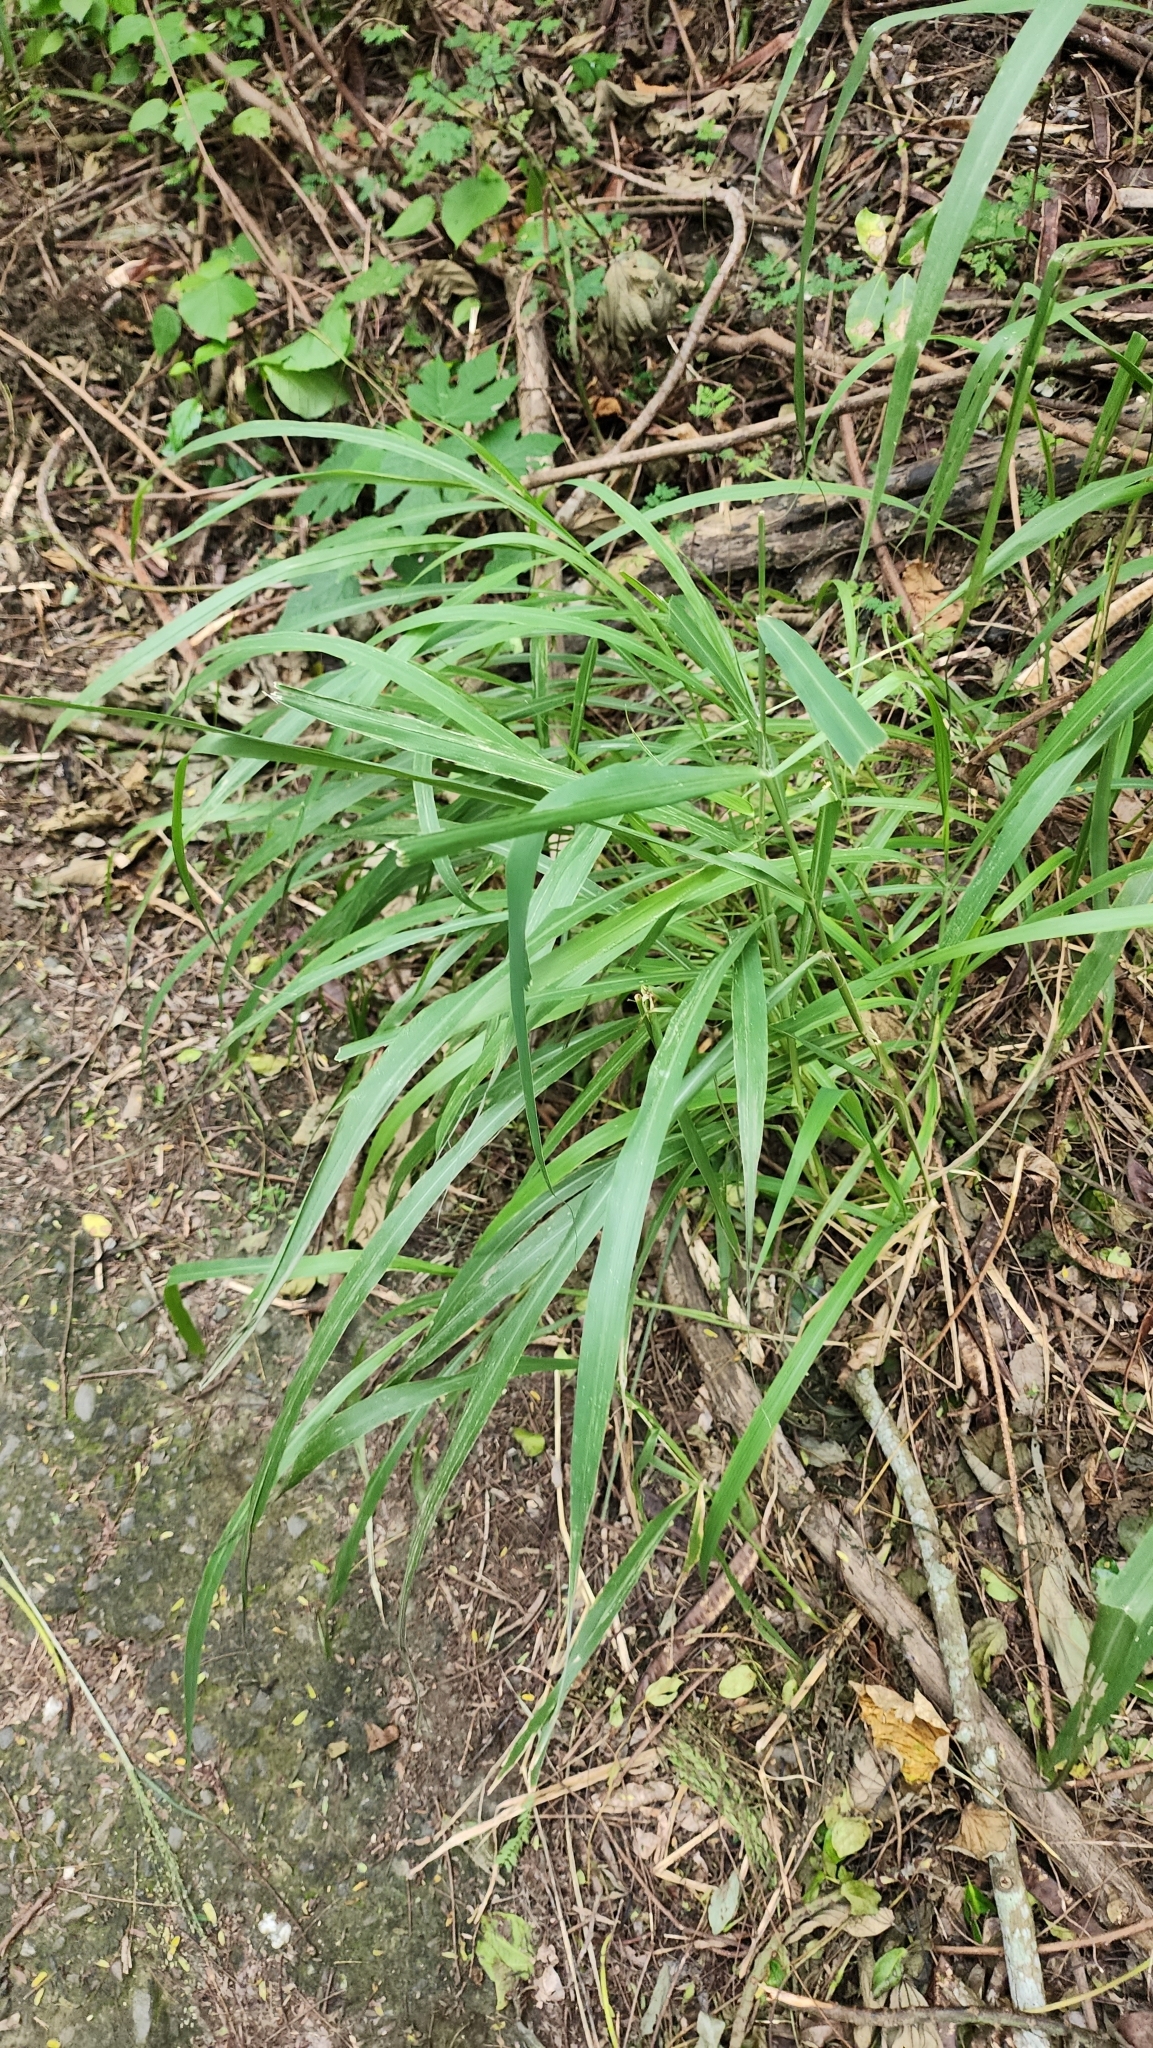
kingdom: Plantae
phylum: Tracheophyta
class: Liliopsida
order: Poales
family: Poaceae
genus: Megathyrsus
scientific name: Megathyrsus maximus
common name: Guineagrass
